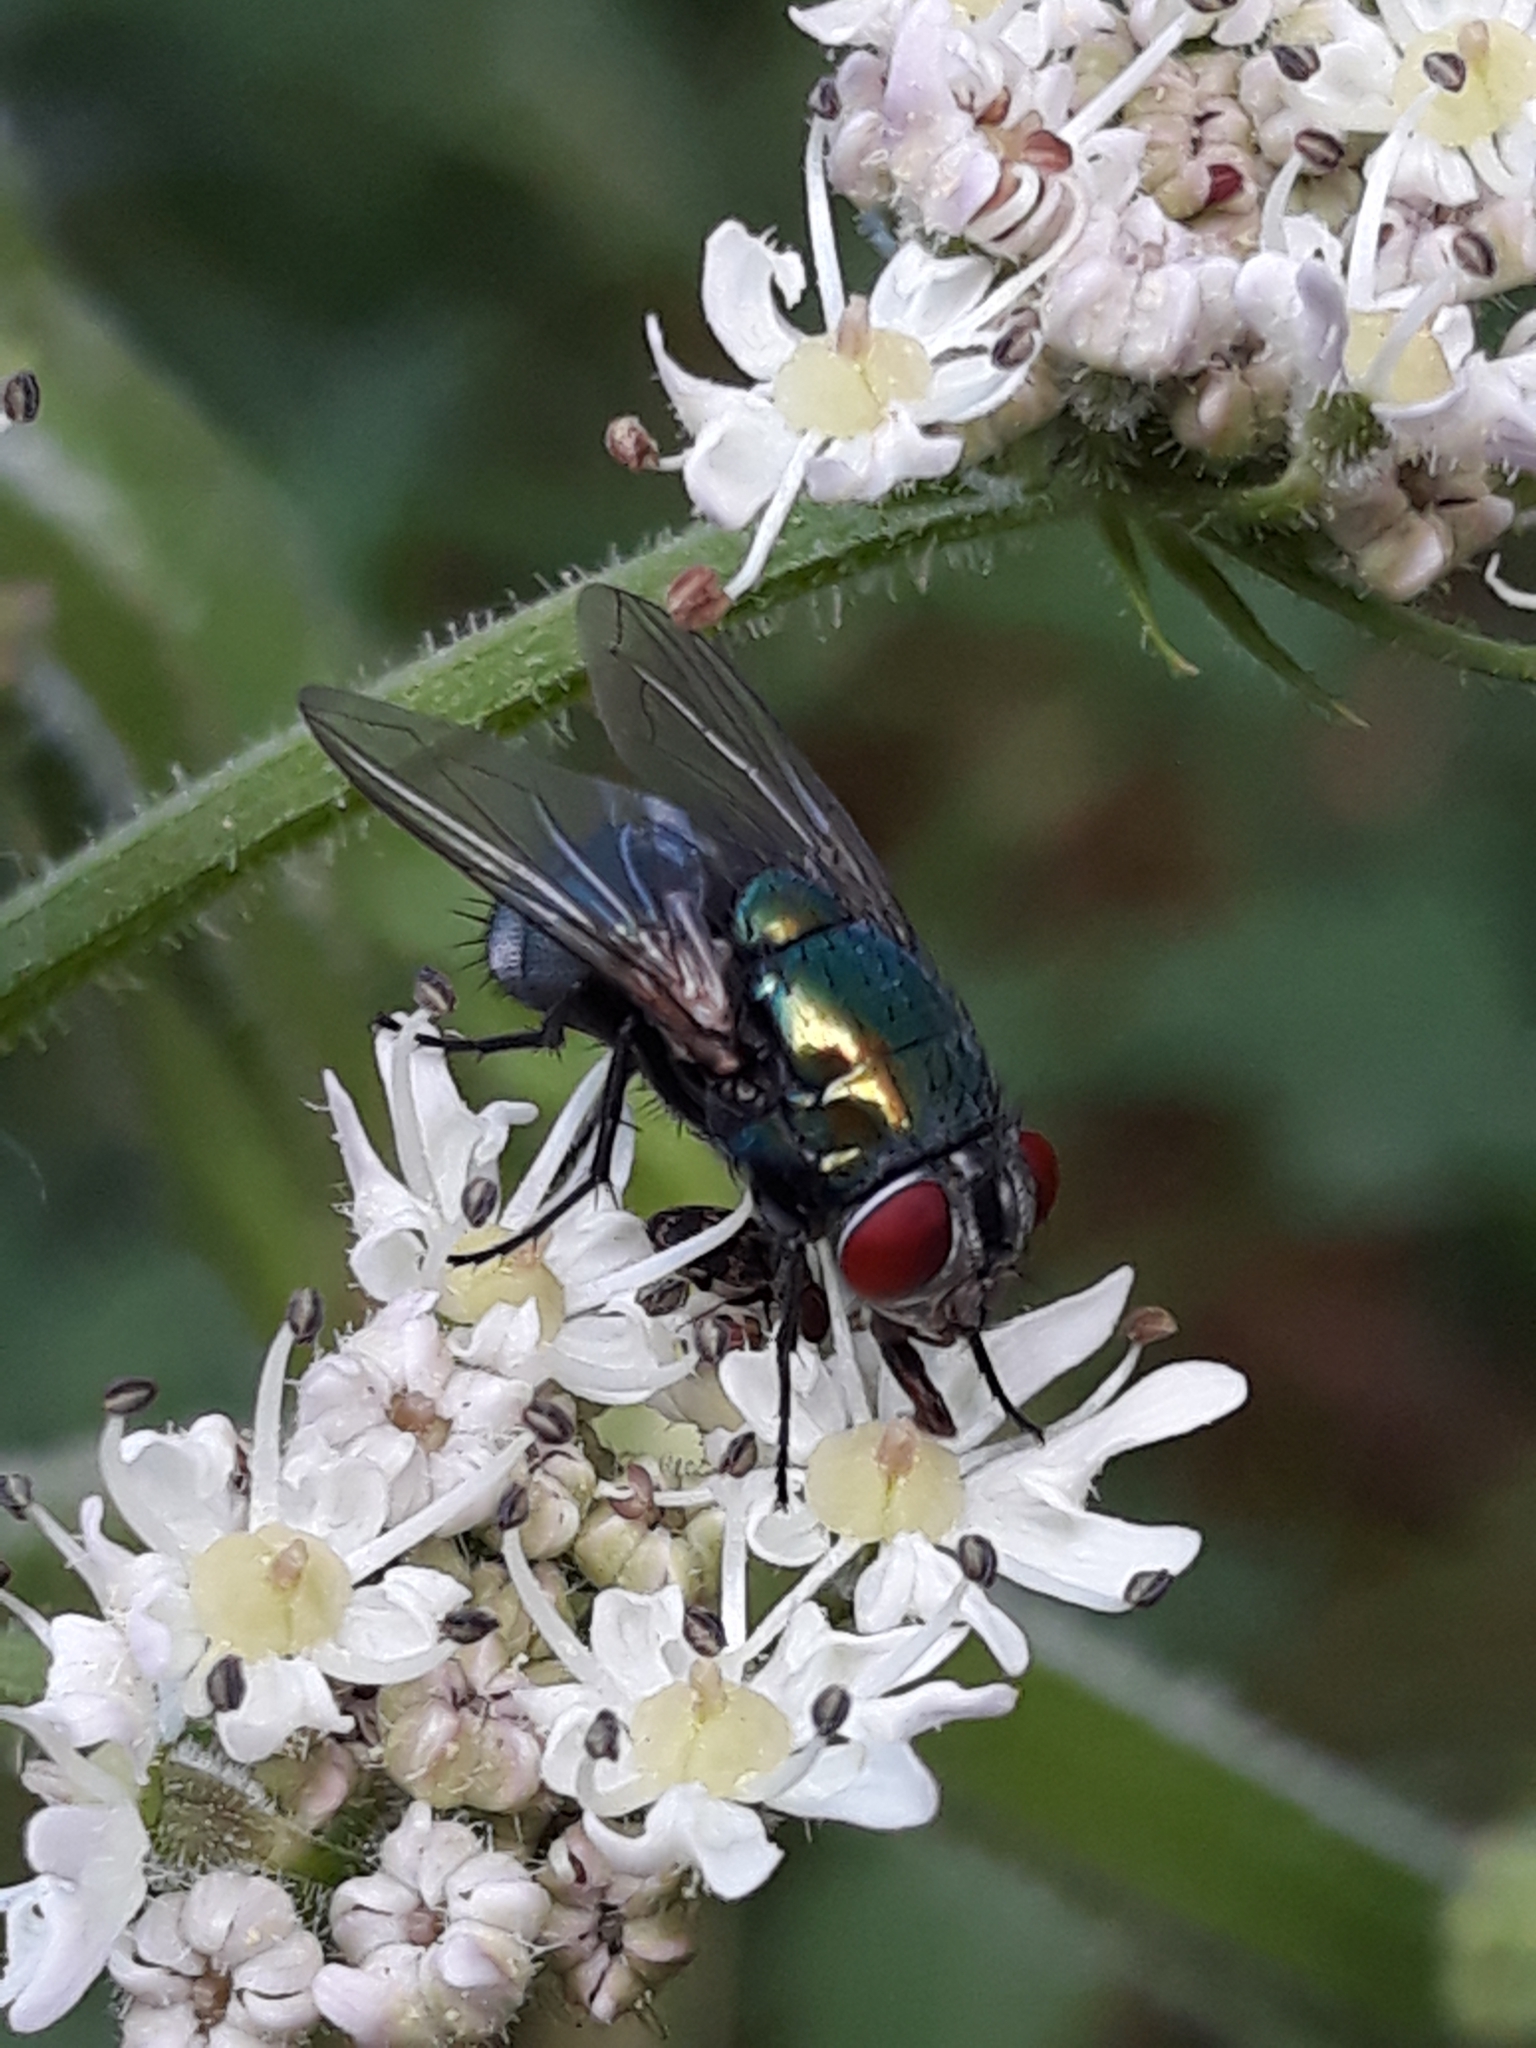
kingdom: Animalia
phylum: Arthropoda
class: Insecta
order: Diptera
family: Calliphoridae
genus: Lucilia
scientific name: Lucilia sericata
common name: Blow fly
